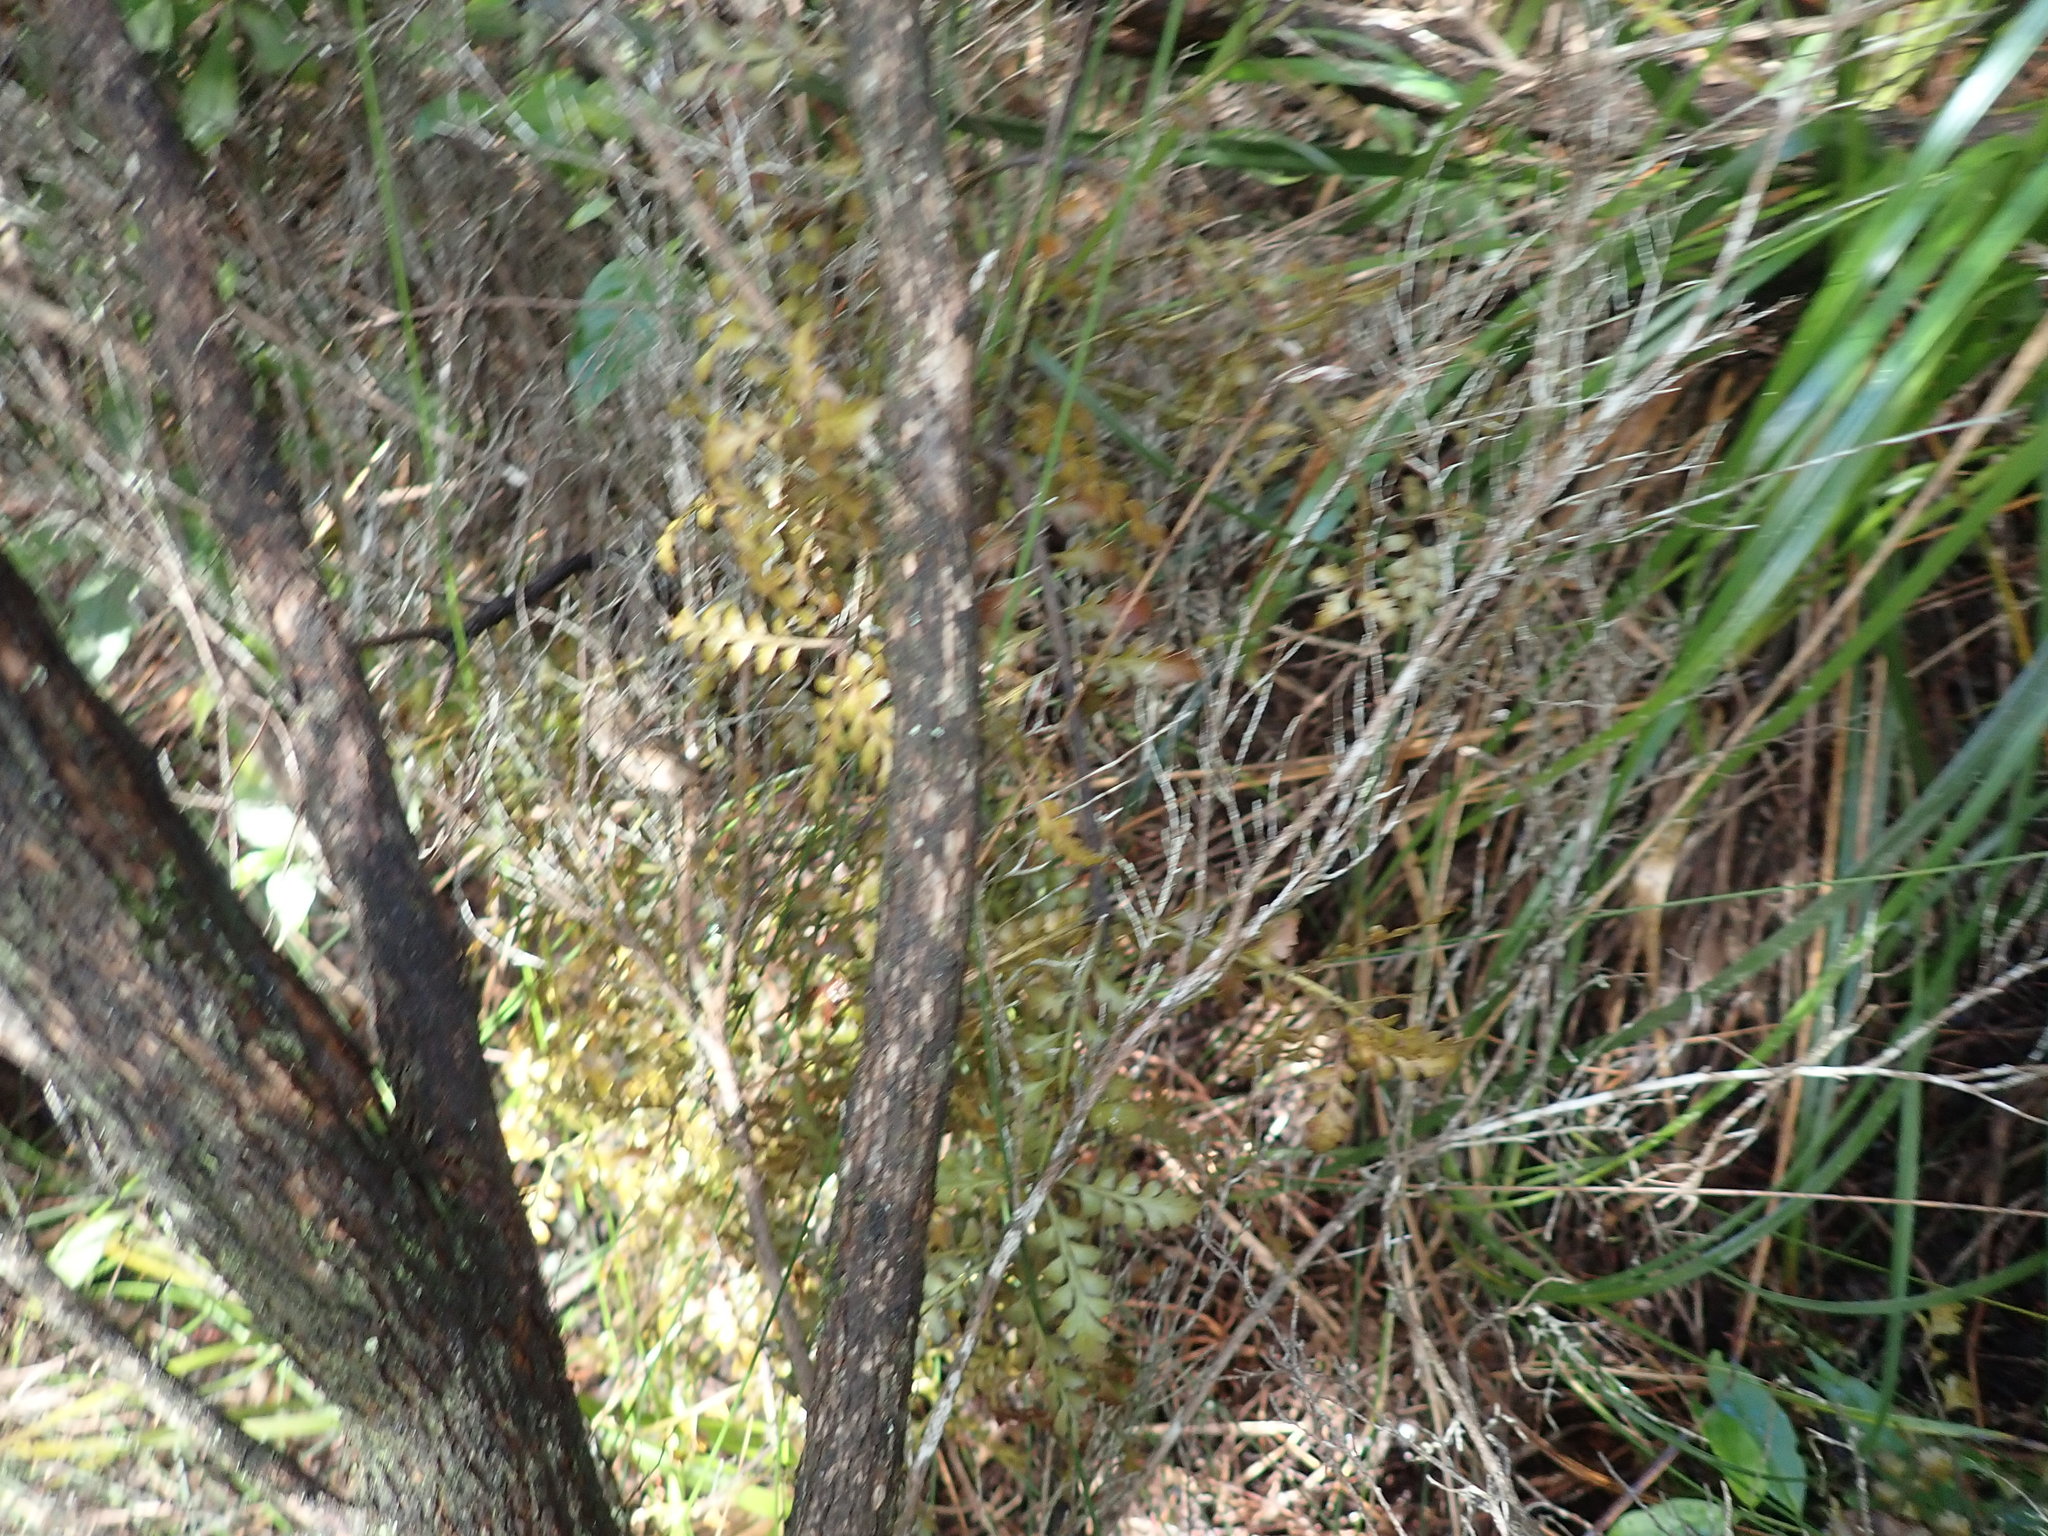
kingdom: Plantae
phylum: Tracheophyta
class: Pinopsida
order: Pinales
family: Phyllocladaceae
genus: Phyllocladus
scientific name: Phyllocladus trichomanoides
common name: Celery pine
